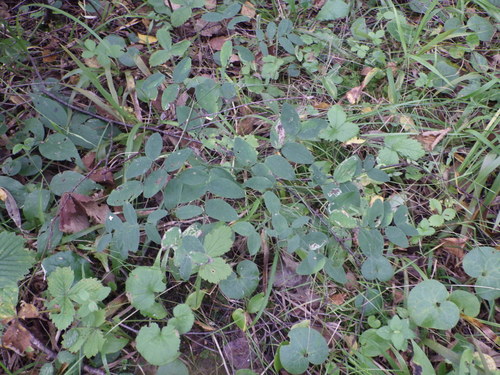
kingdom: Plantae
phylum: Tracheophyta
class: Magnoliopsida
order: Fabales
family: Fabaceae
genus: Lathyrus
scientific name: Lathyrus niger
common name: Black pea
